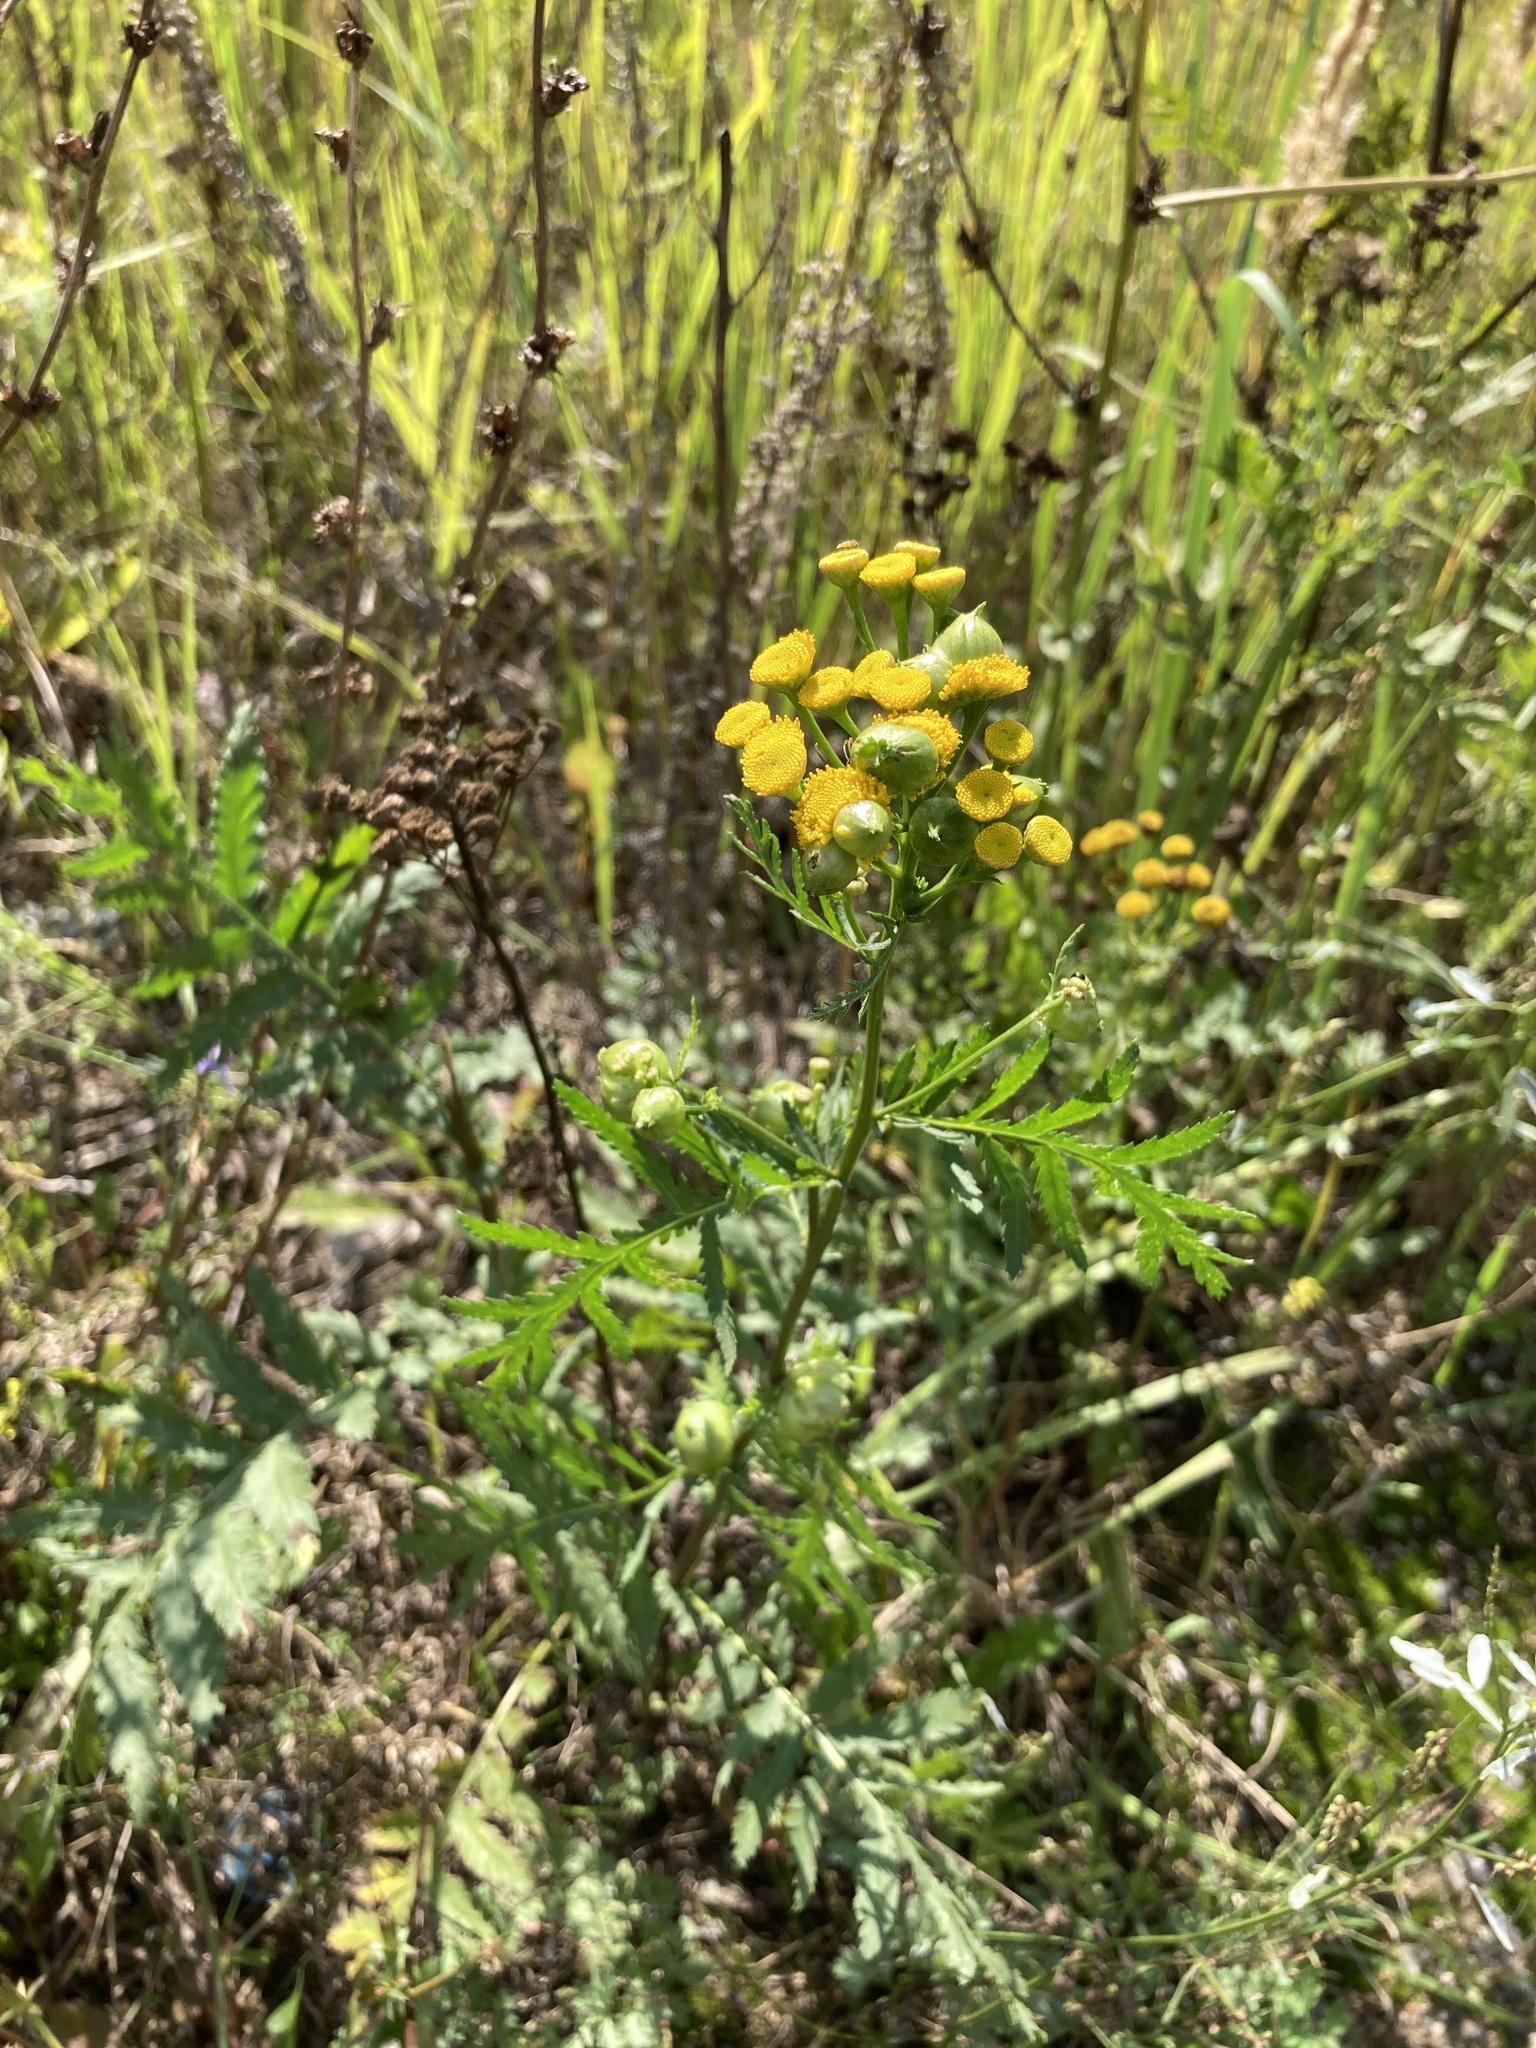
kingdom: Plantae
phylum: Tracheophyta
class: Magnoliopsida
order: Asterales
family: Asteraceae
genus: Tanacetum
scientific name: Tanacetum vulgare
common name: Common tansy
